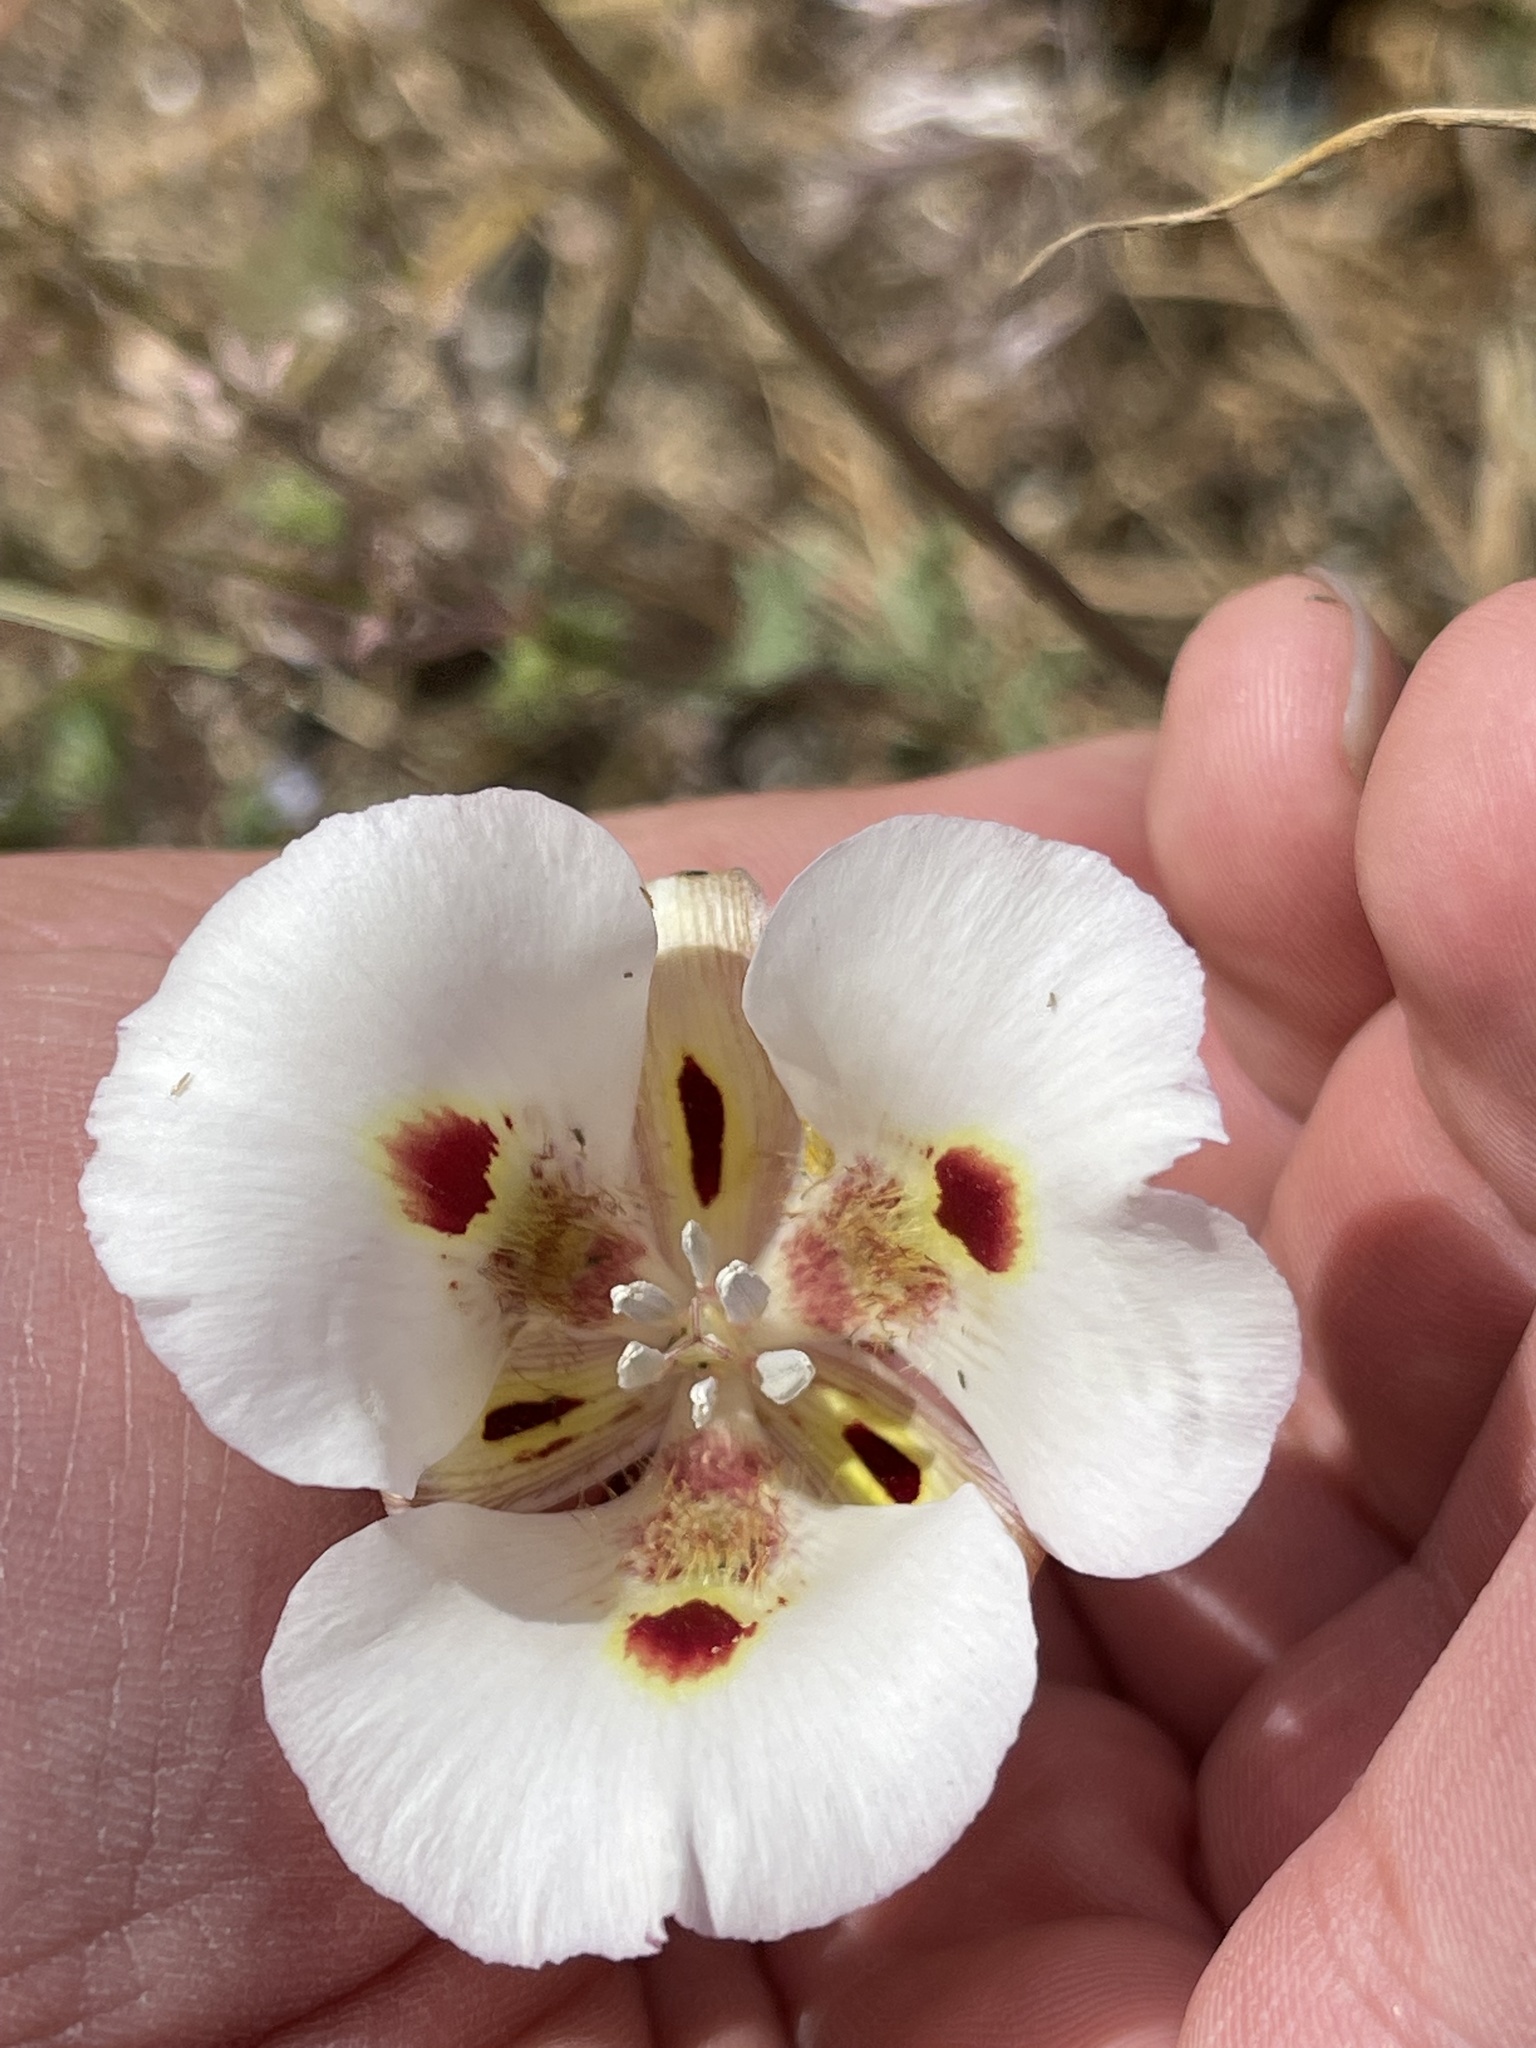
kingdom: Plantae
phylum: Tracheophyta
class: Liliopsida
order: Liliales
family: Liliaceae
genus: Calochortus
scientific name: Calochortus venustus
